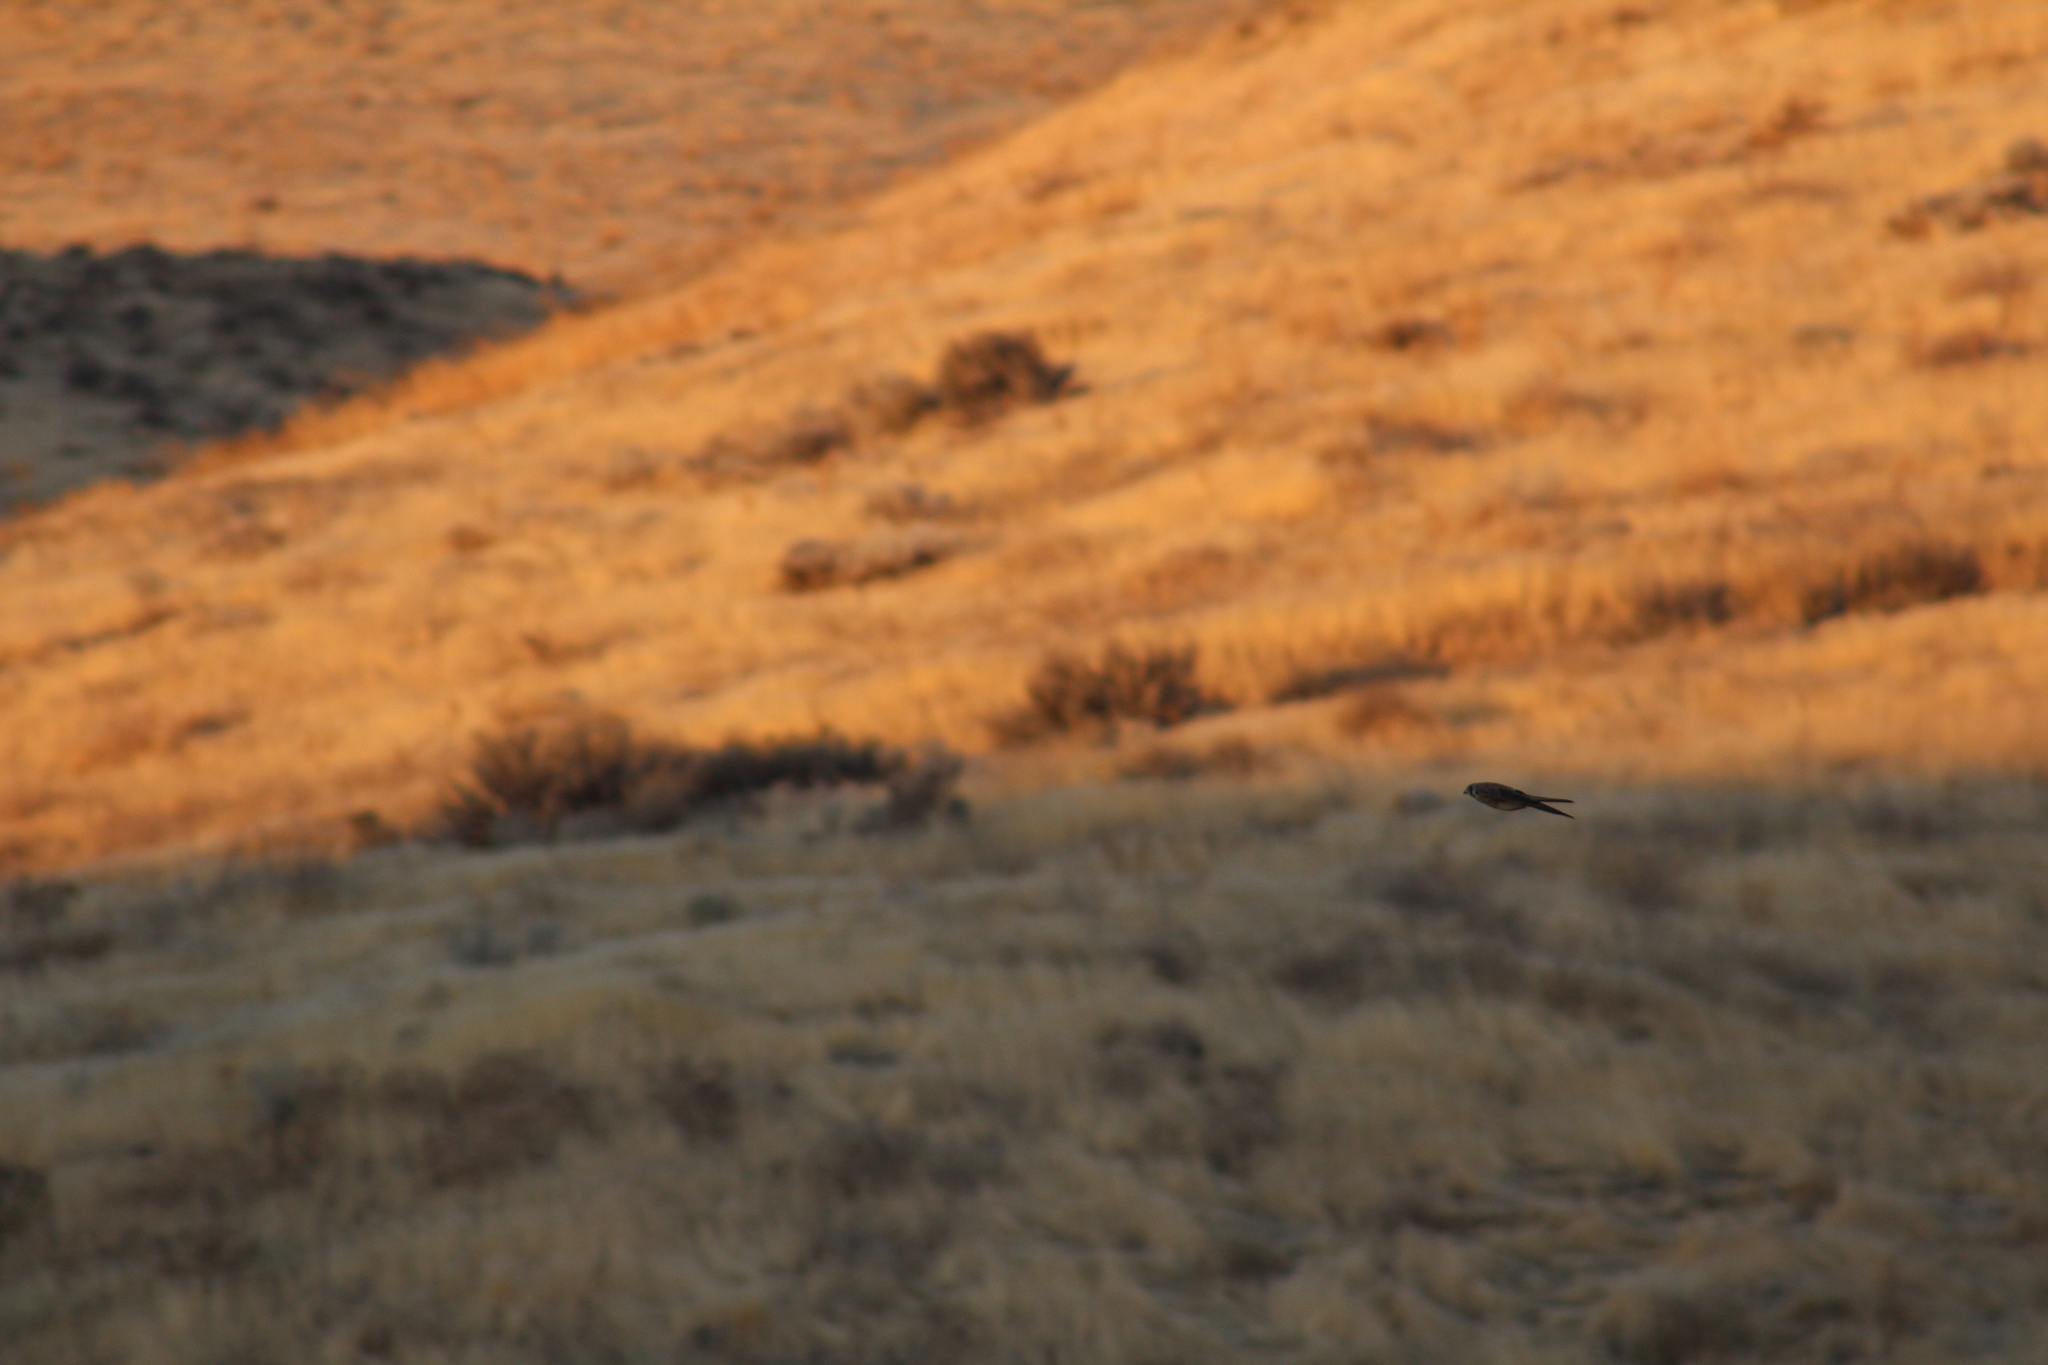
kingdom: Animalia
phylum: Chordata
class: Aves
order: Falconiformes
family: Falconidae
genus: Falco
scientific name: Falco sparverius
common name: American kestrel
